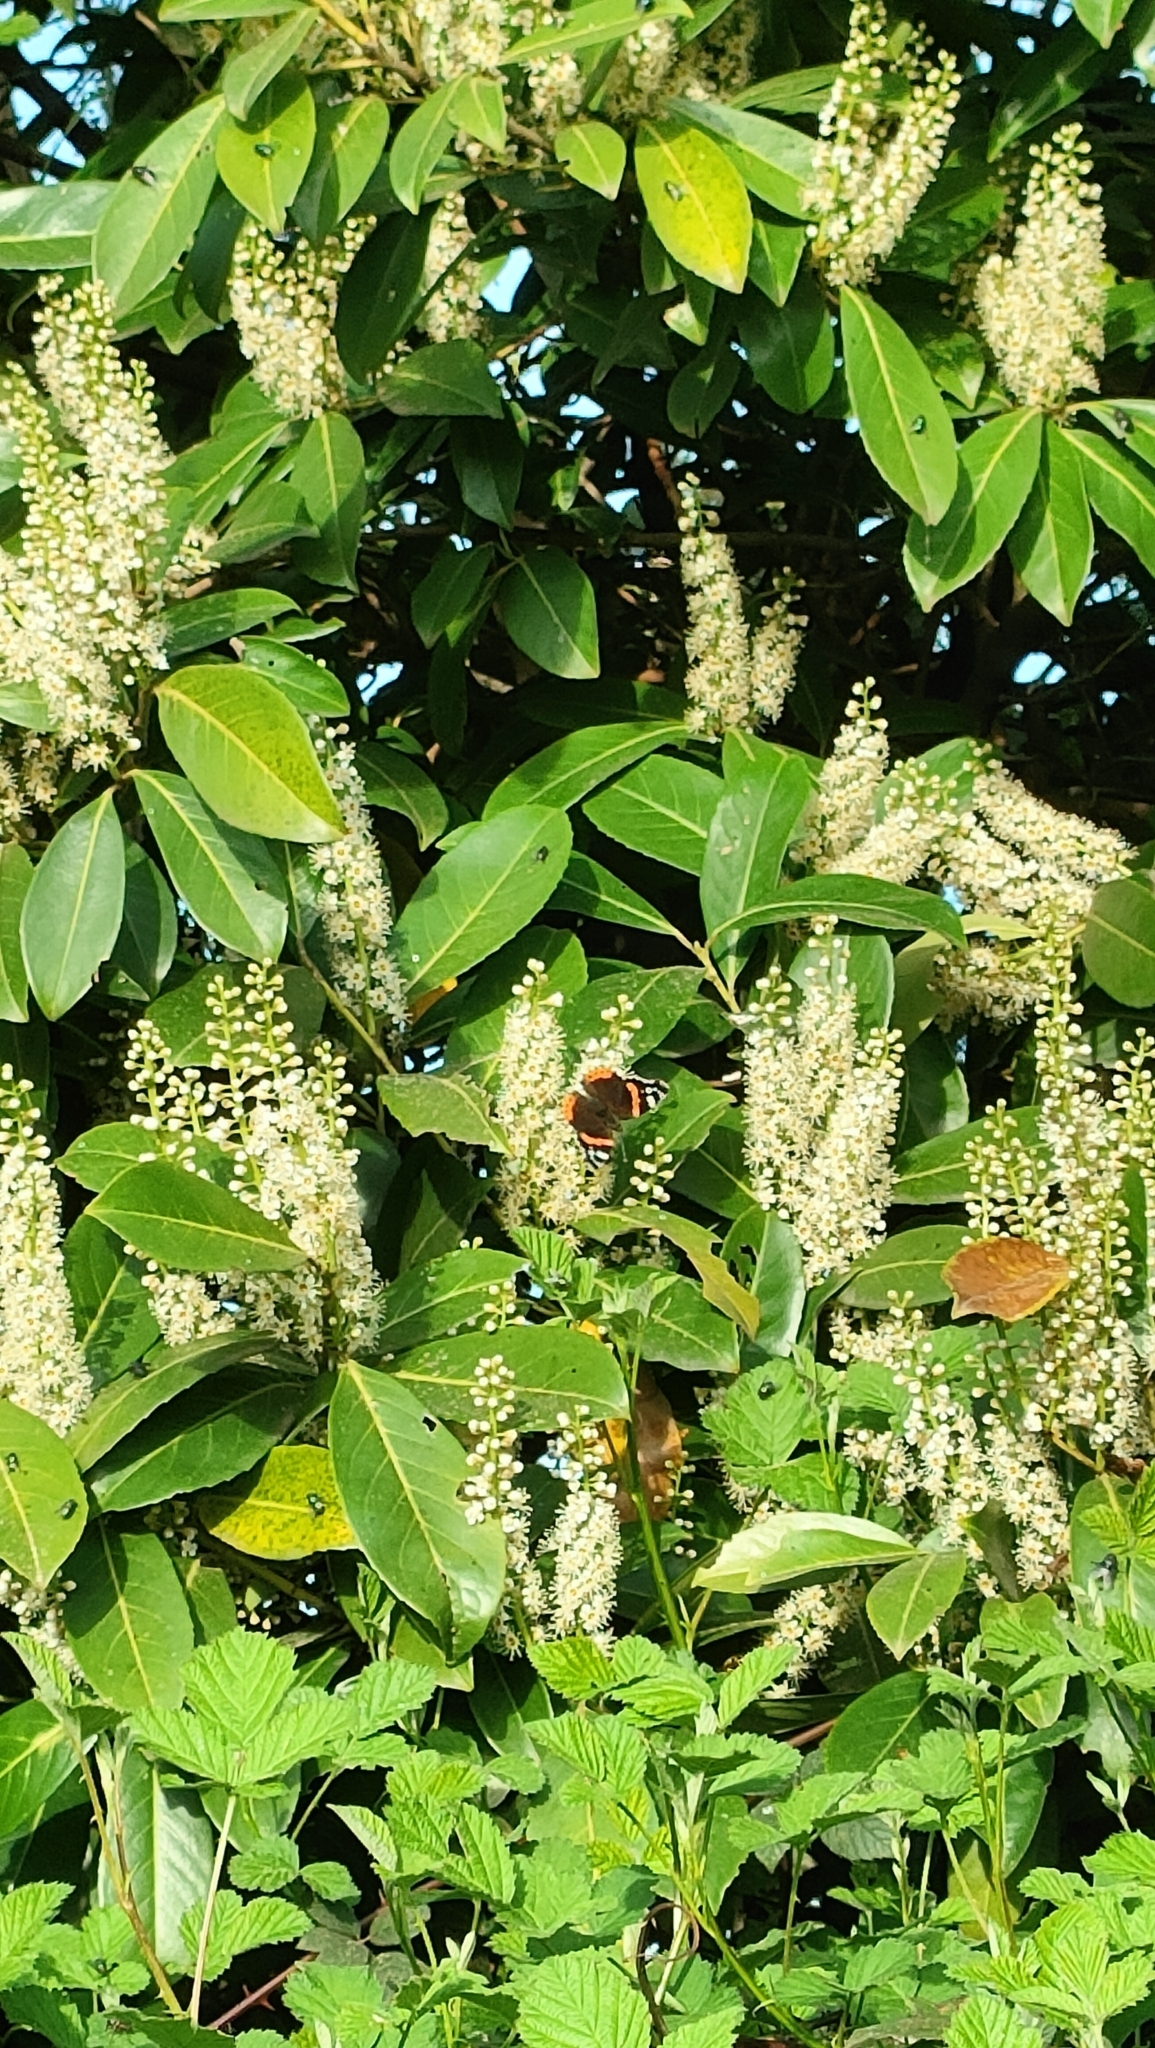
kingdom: Animalia
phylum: Arthropoda
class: Insecta
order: Lepidoptera
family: Nymphalidae
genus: Vanessa
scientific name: Vanessa atalanta
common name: Red admiral
